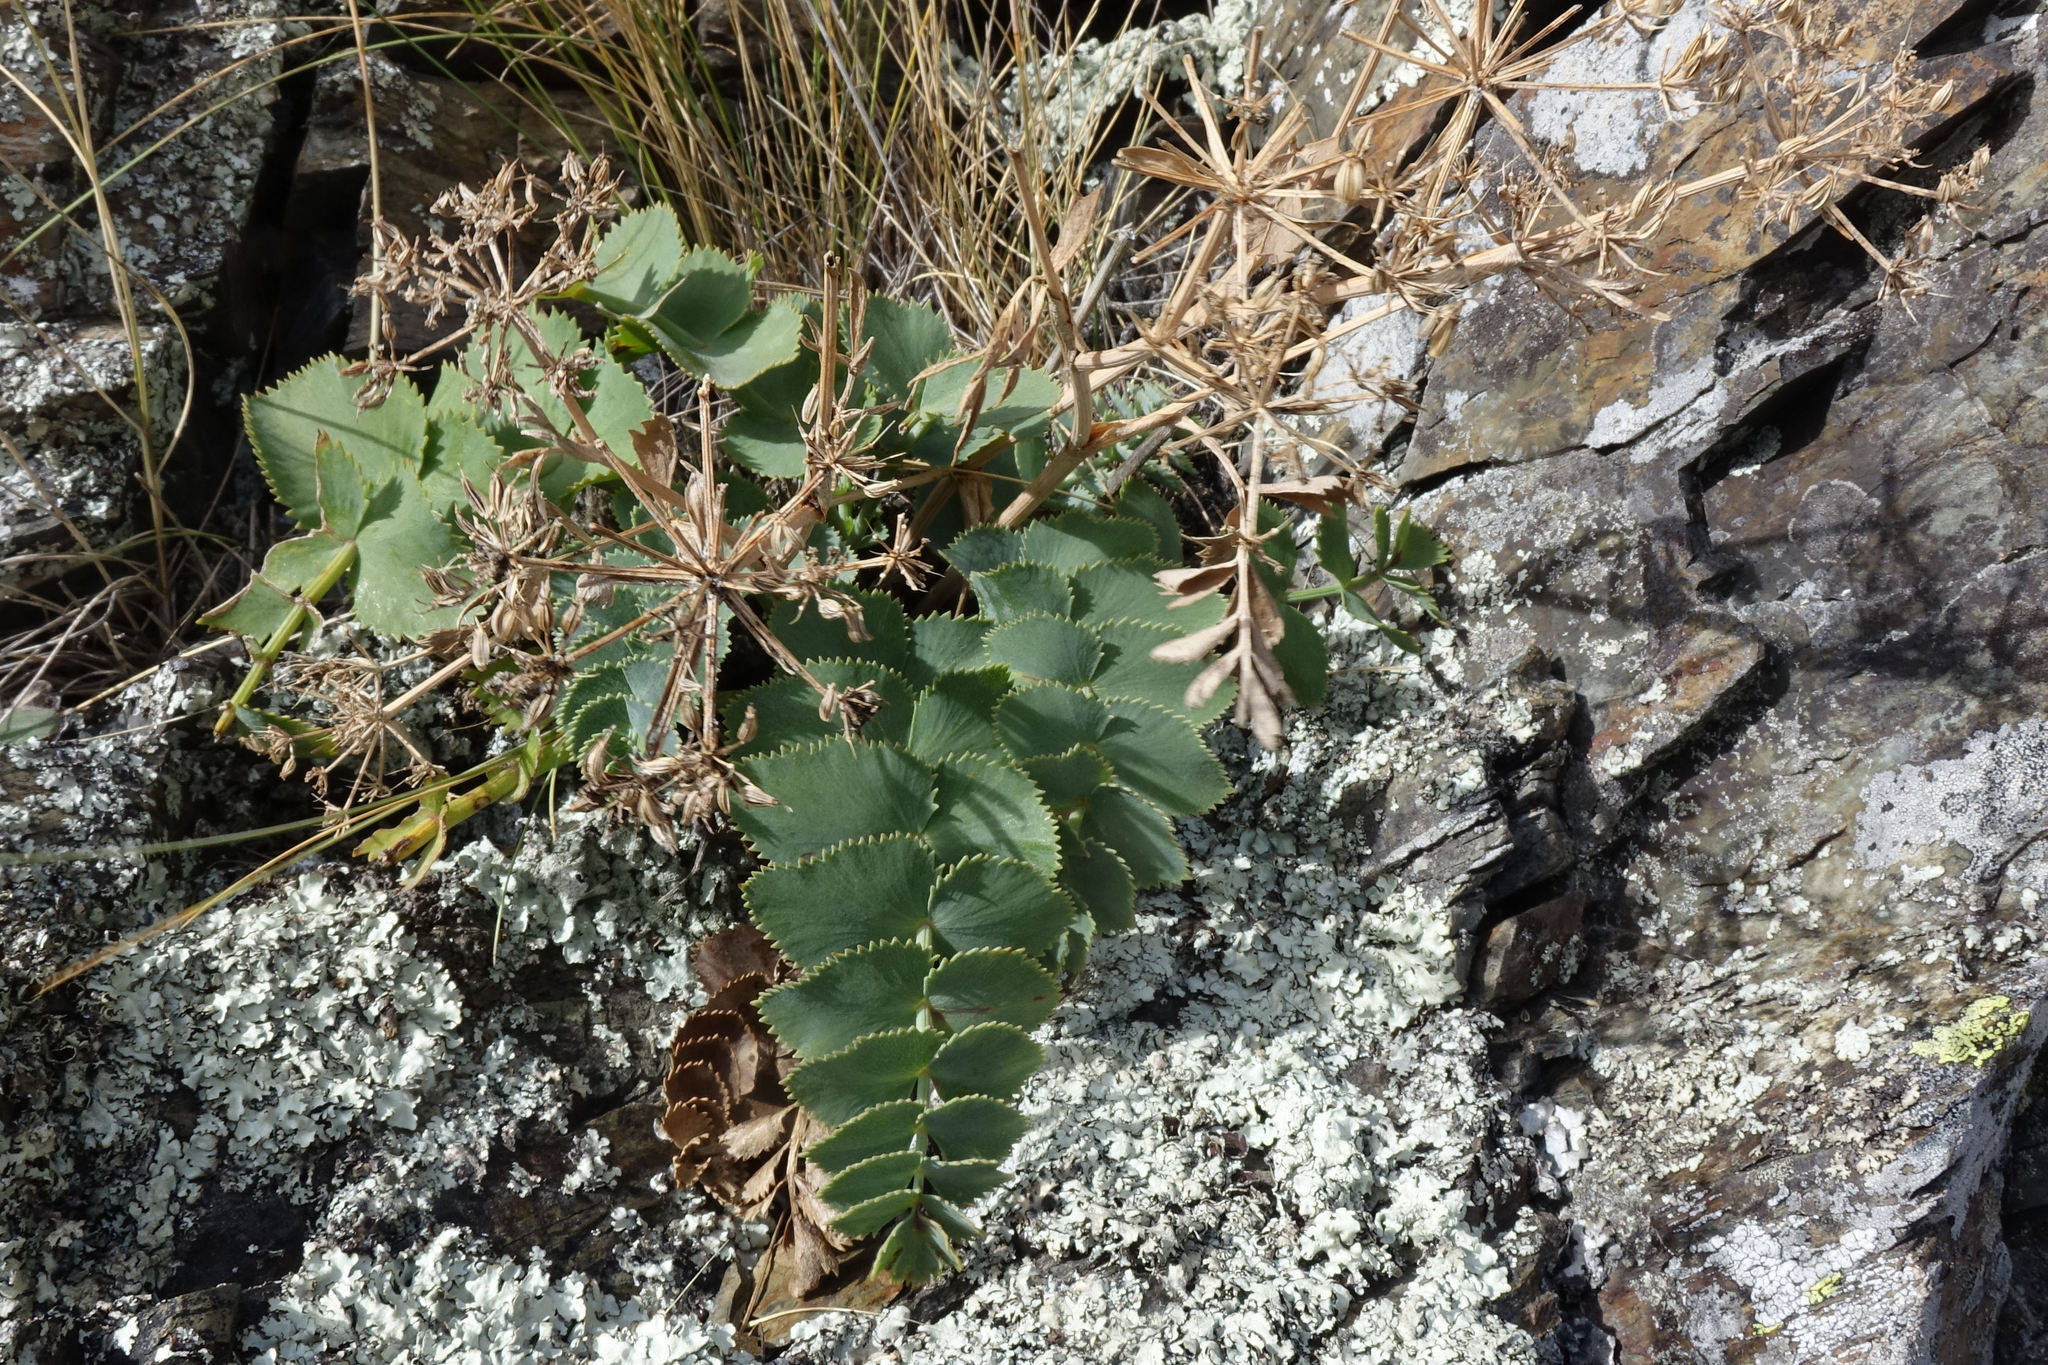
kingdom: Plantae
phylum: Tracheophyta
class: Magnoliopsida
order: Apiales
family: Apiaceae
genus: Gingidia
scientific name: Gingidia grisea
